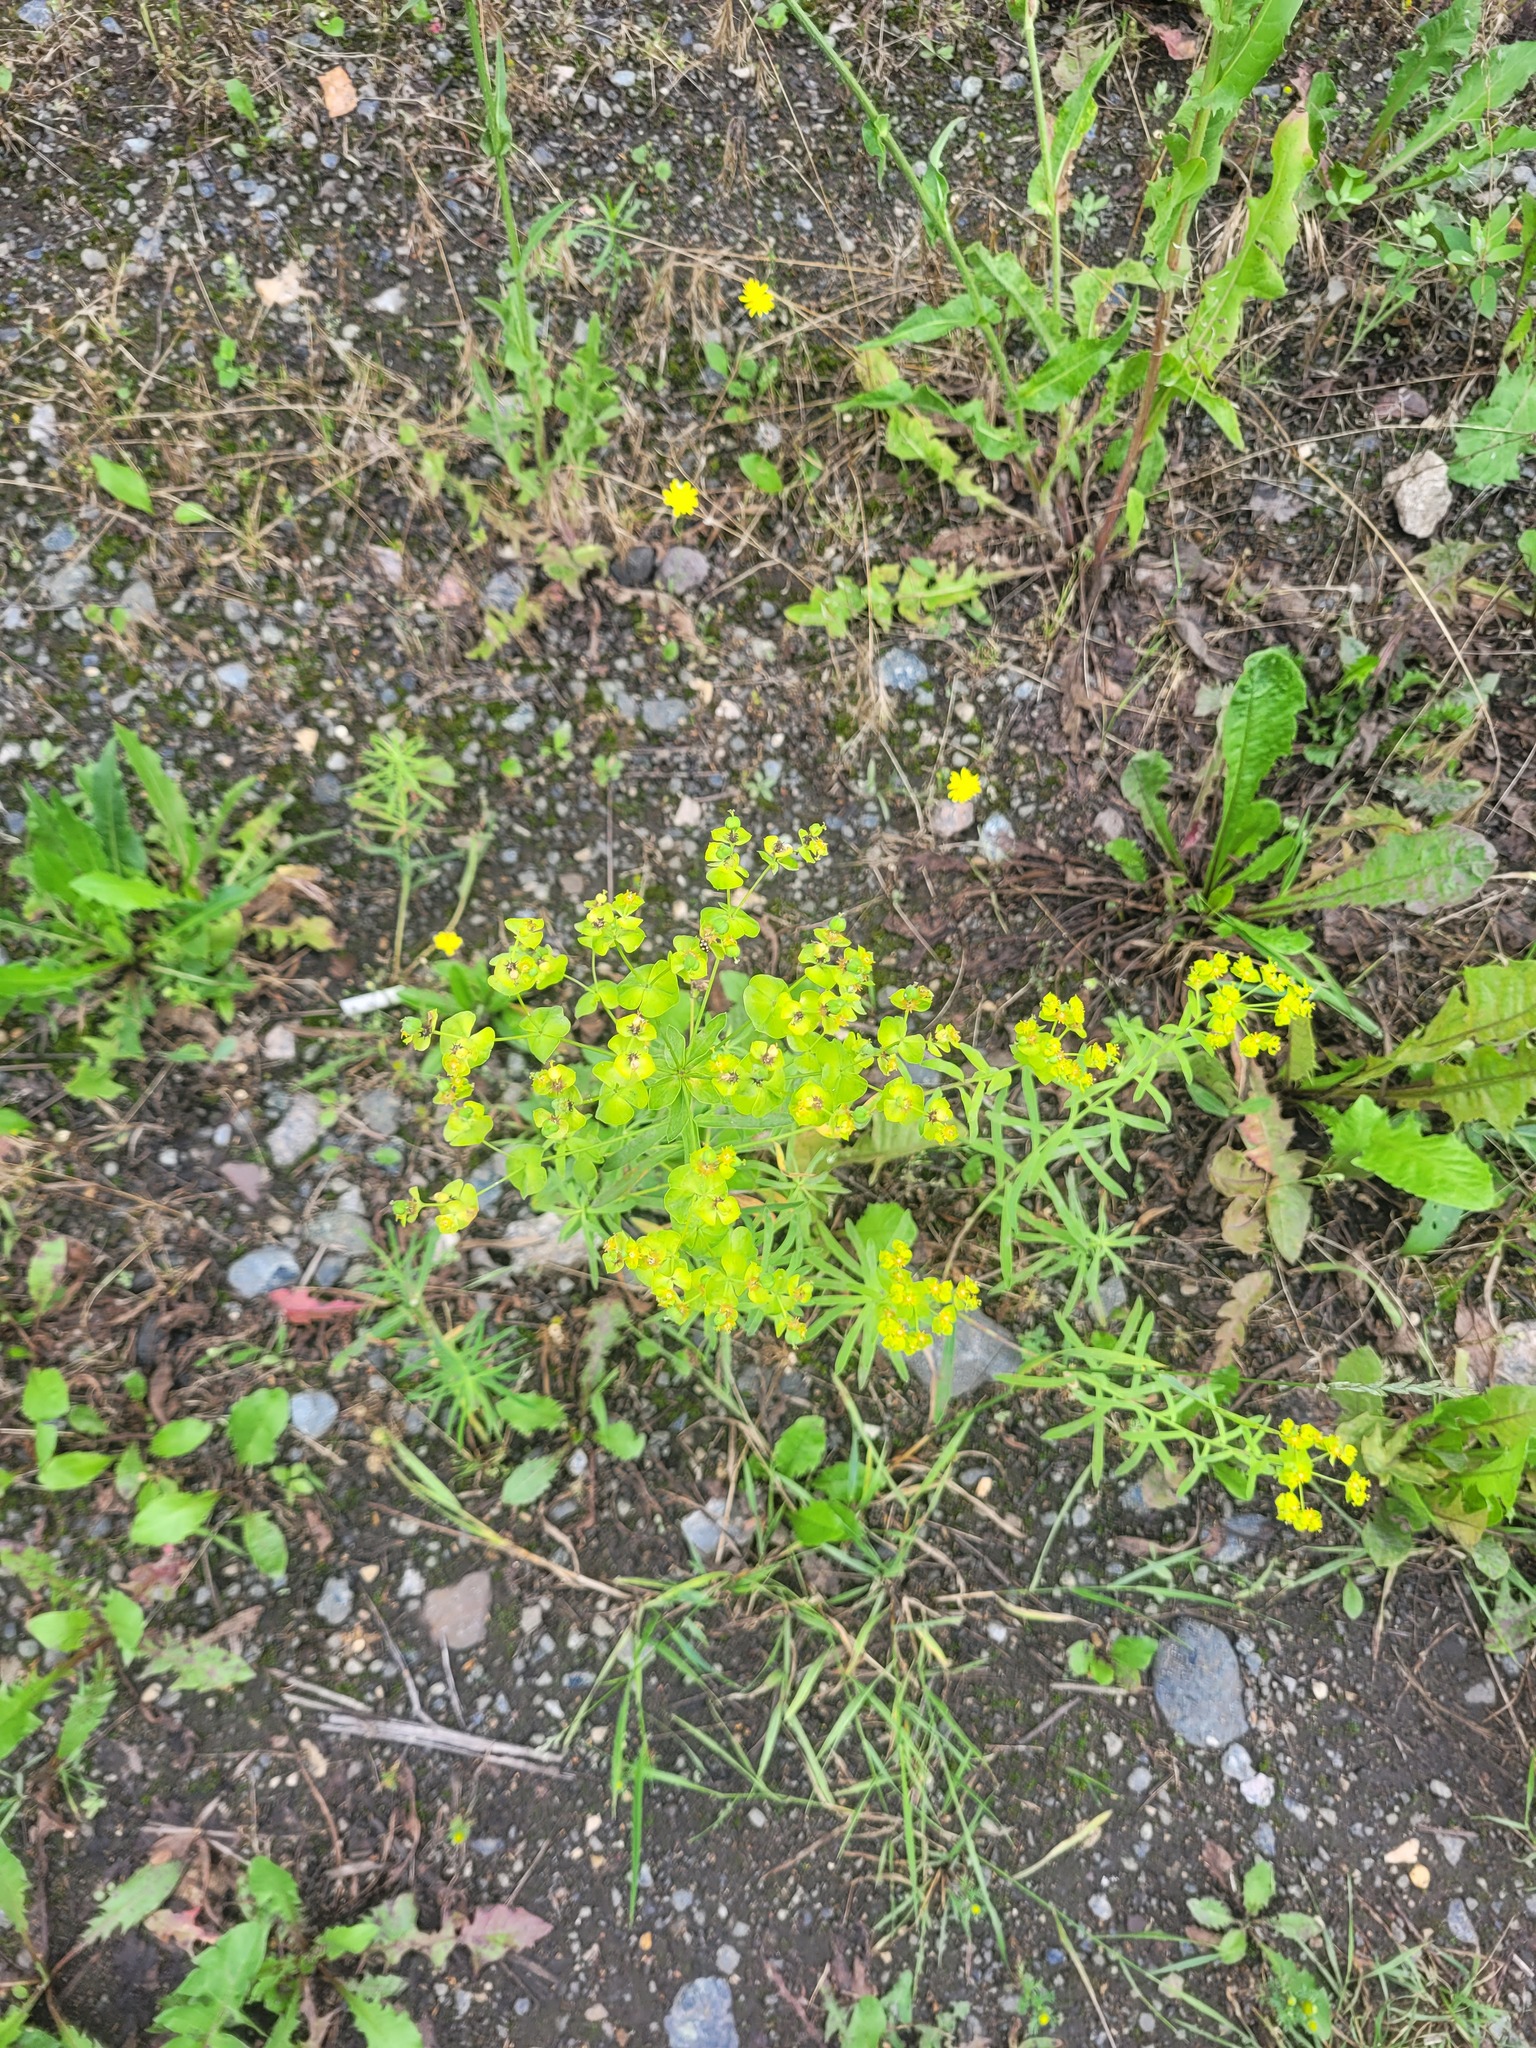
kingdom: Plantae
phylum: Tracheophyta
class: Magnoliopsida
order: Malpighiales
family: Euphorbiaceae
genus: Euphorbia
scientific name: Euphorbia virgata
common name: Leafy spurge
